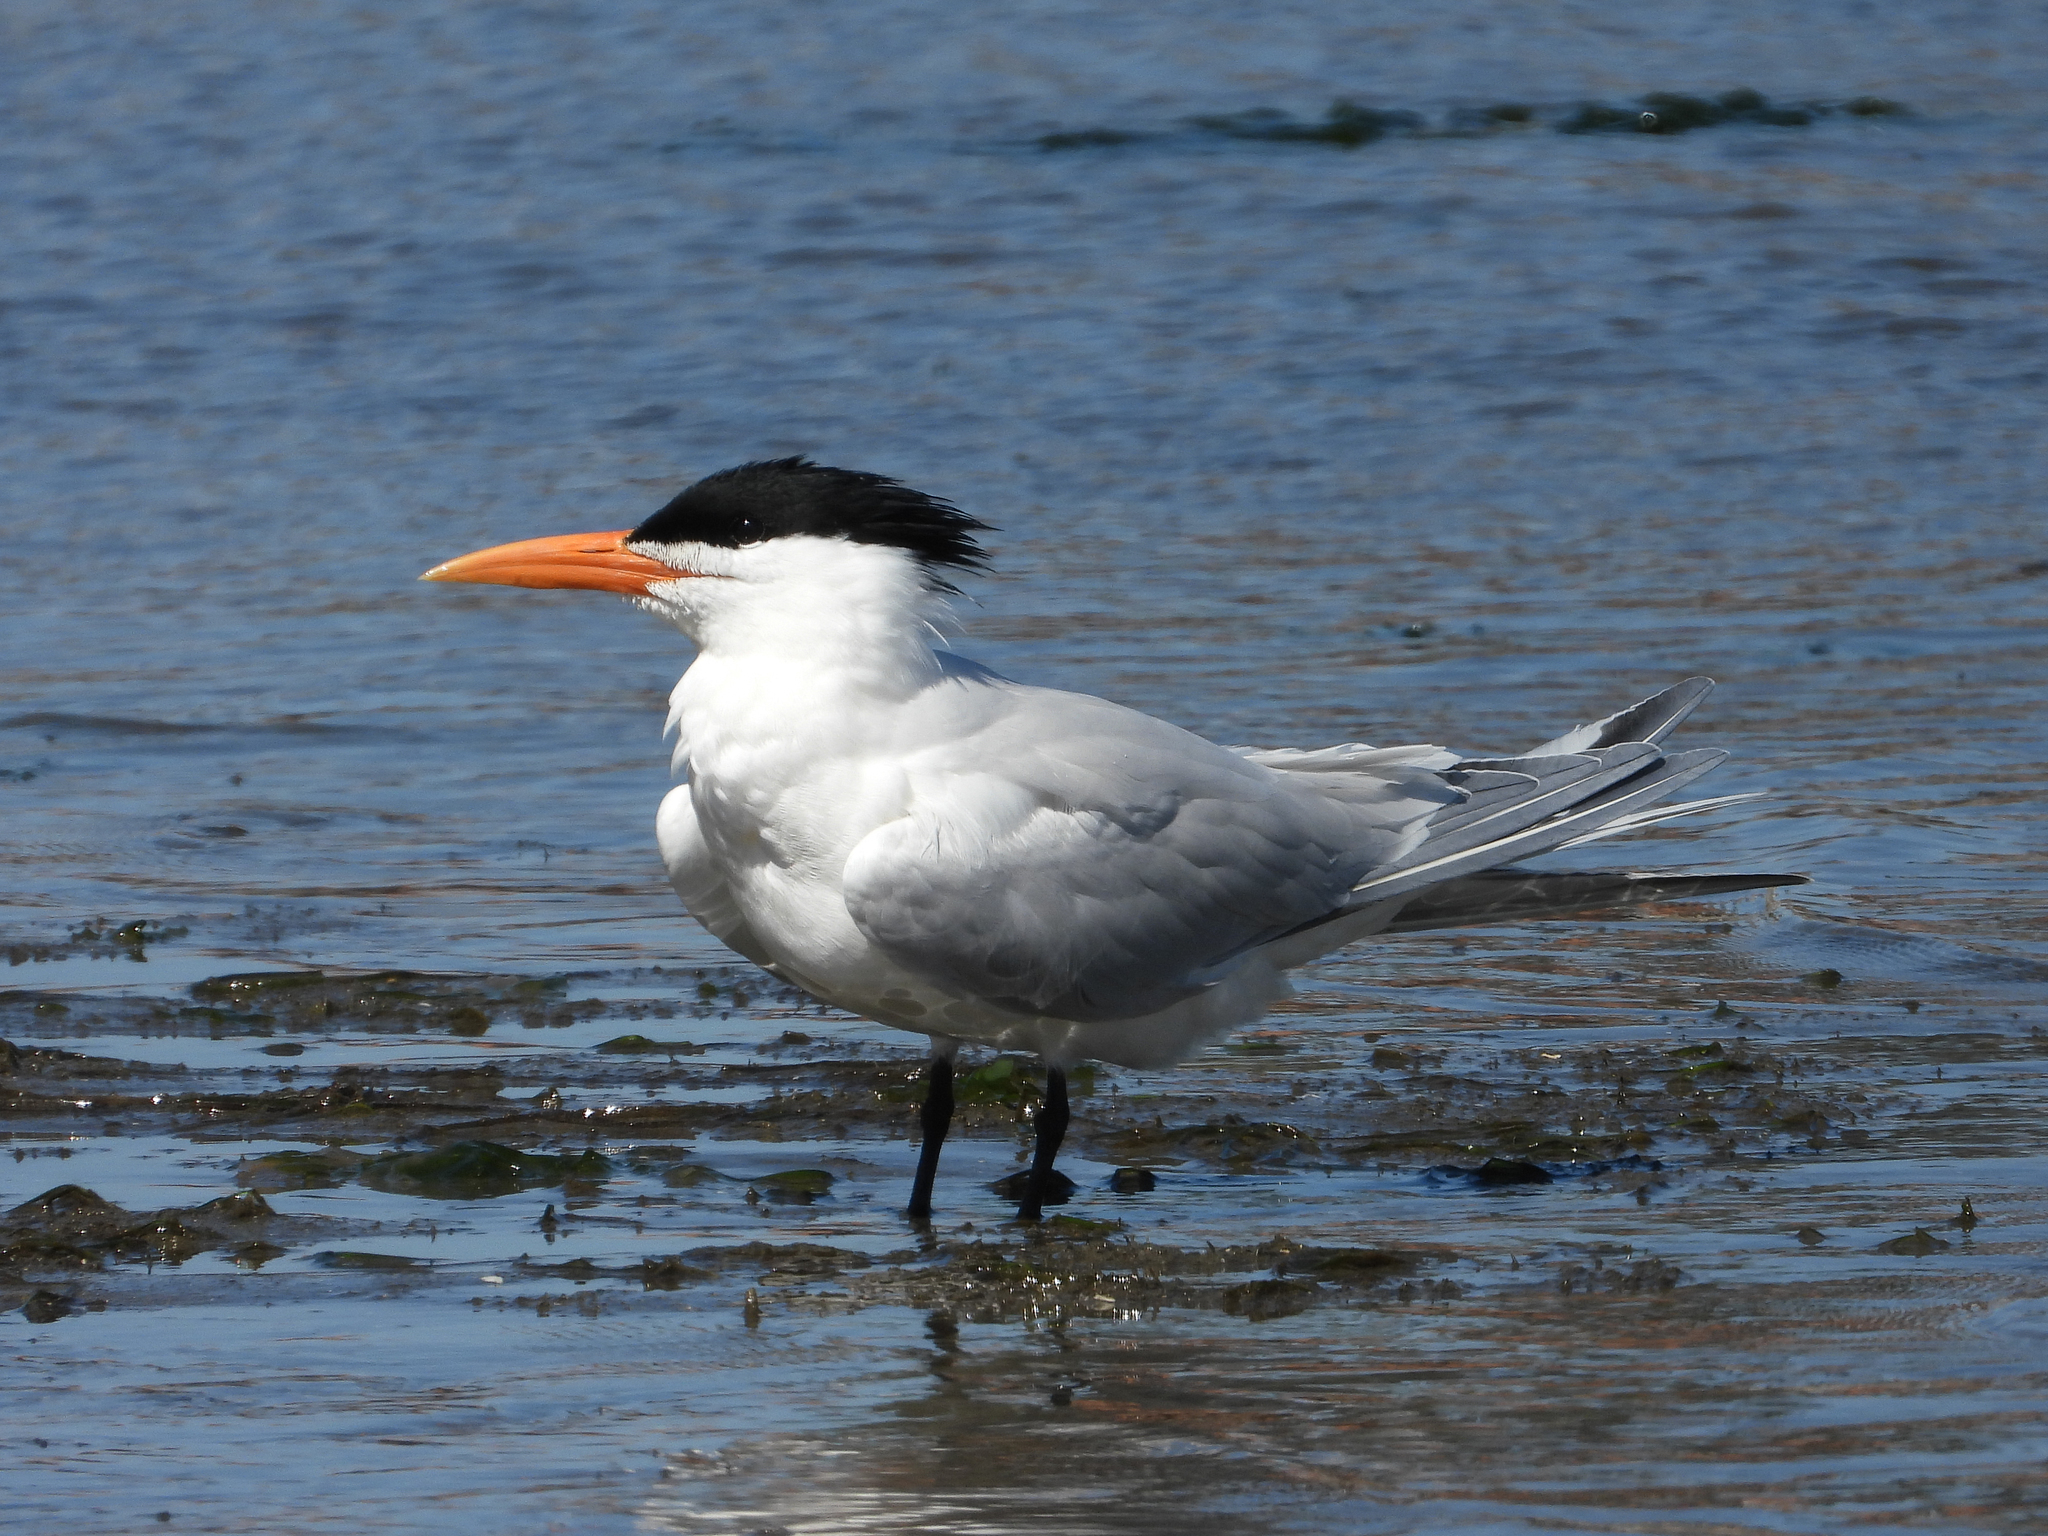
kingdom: Animalia
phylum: Chordata
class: Aves
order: Charadriiformes
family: Laridae
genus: Thalasseus
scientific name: Thalasseus maximus
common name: Royal tern
